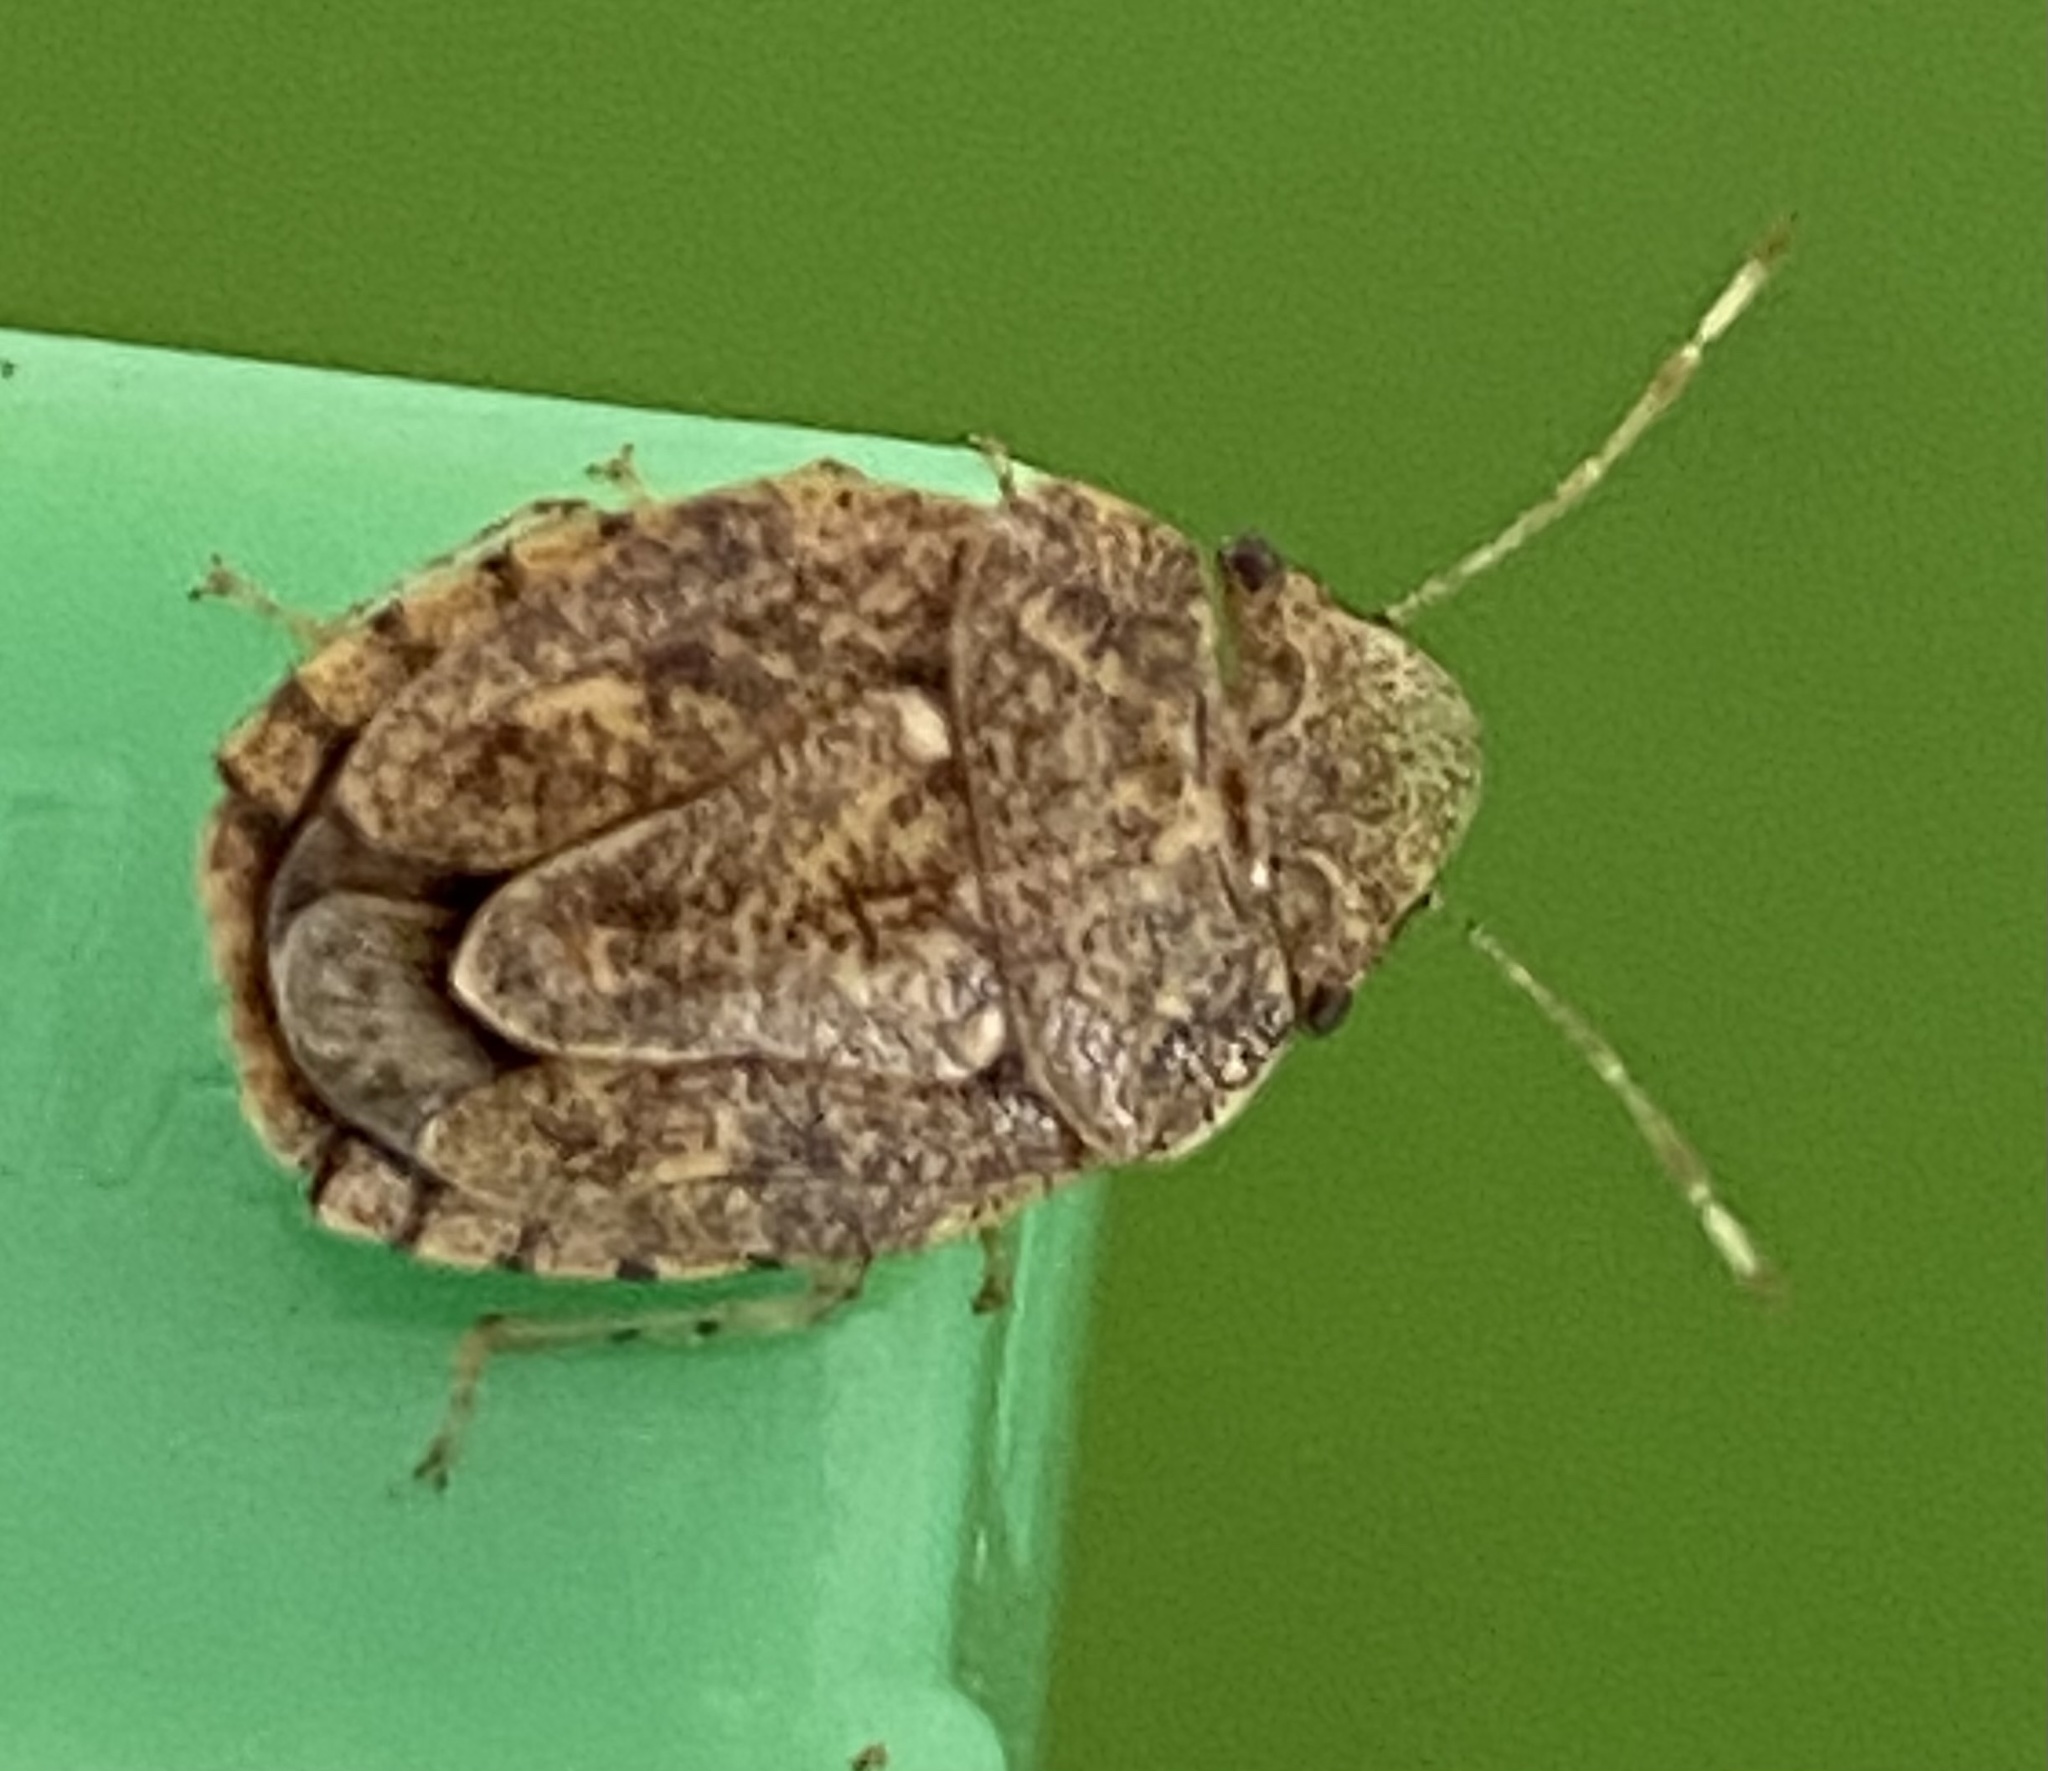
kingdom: Animalia
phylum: Arthropoda
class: Insecta
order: Hemiptera
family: Pentatomidae
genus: Acclivilamna
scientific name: Acclivilamna vicina
